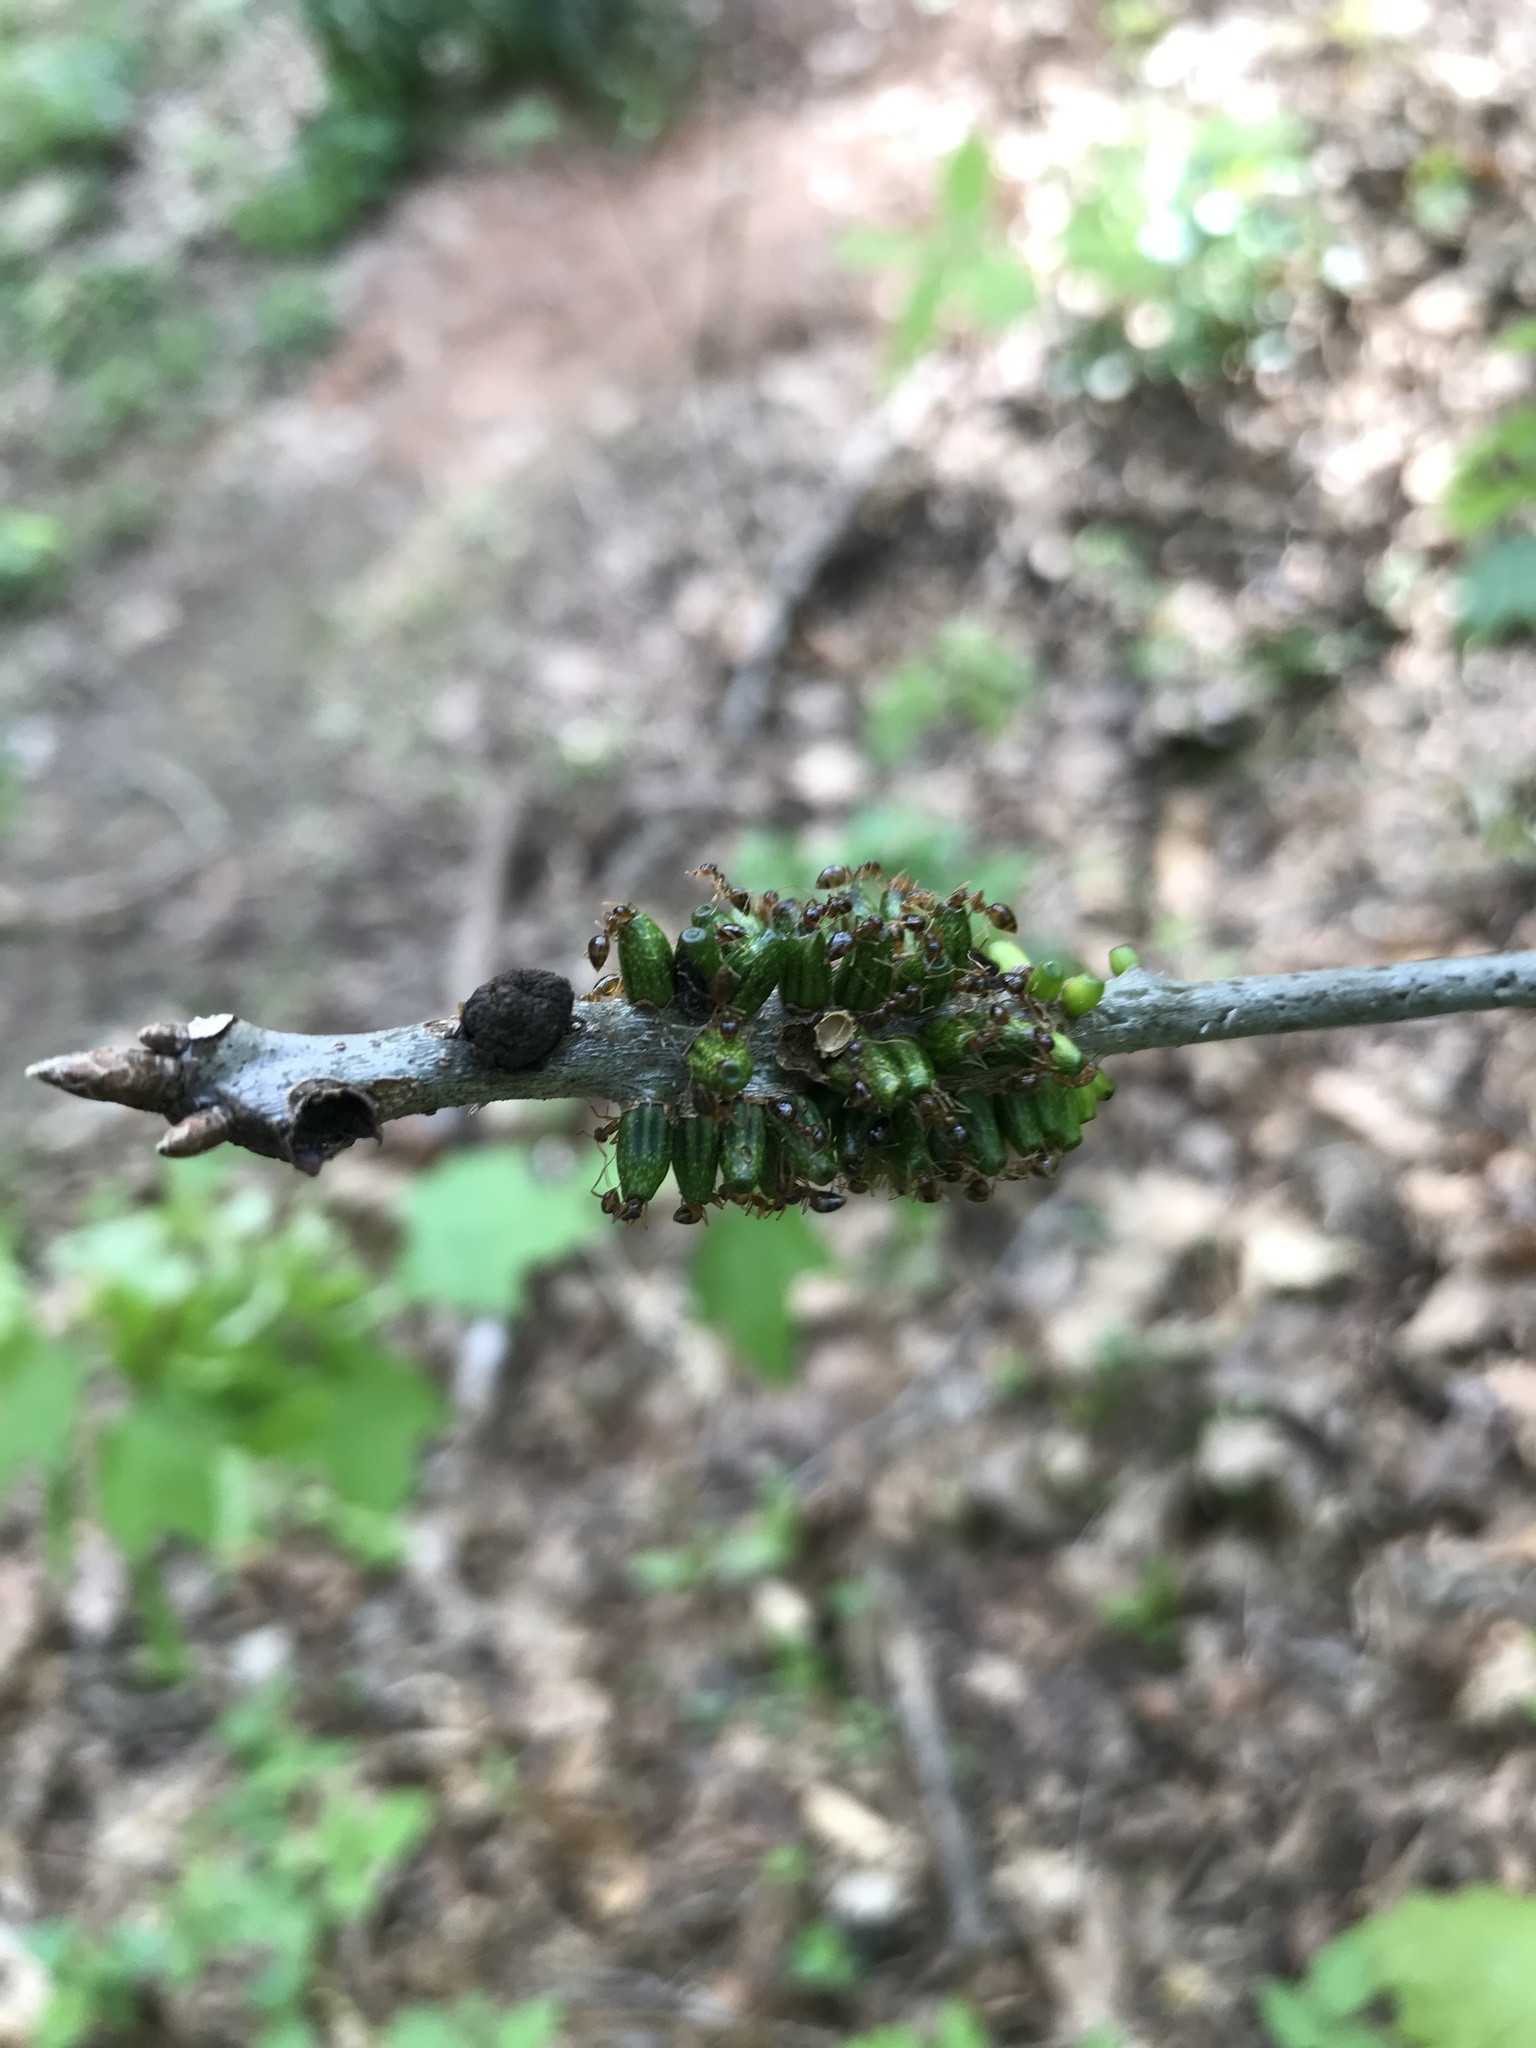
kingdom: Animalia
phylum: Arthropoda
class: Insecta
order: Hymenoptera
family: Cynipidae
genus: Callirhytis
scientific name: Callirhytis
